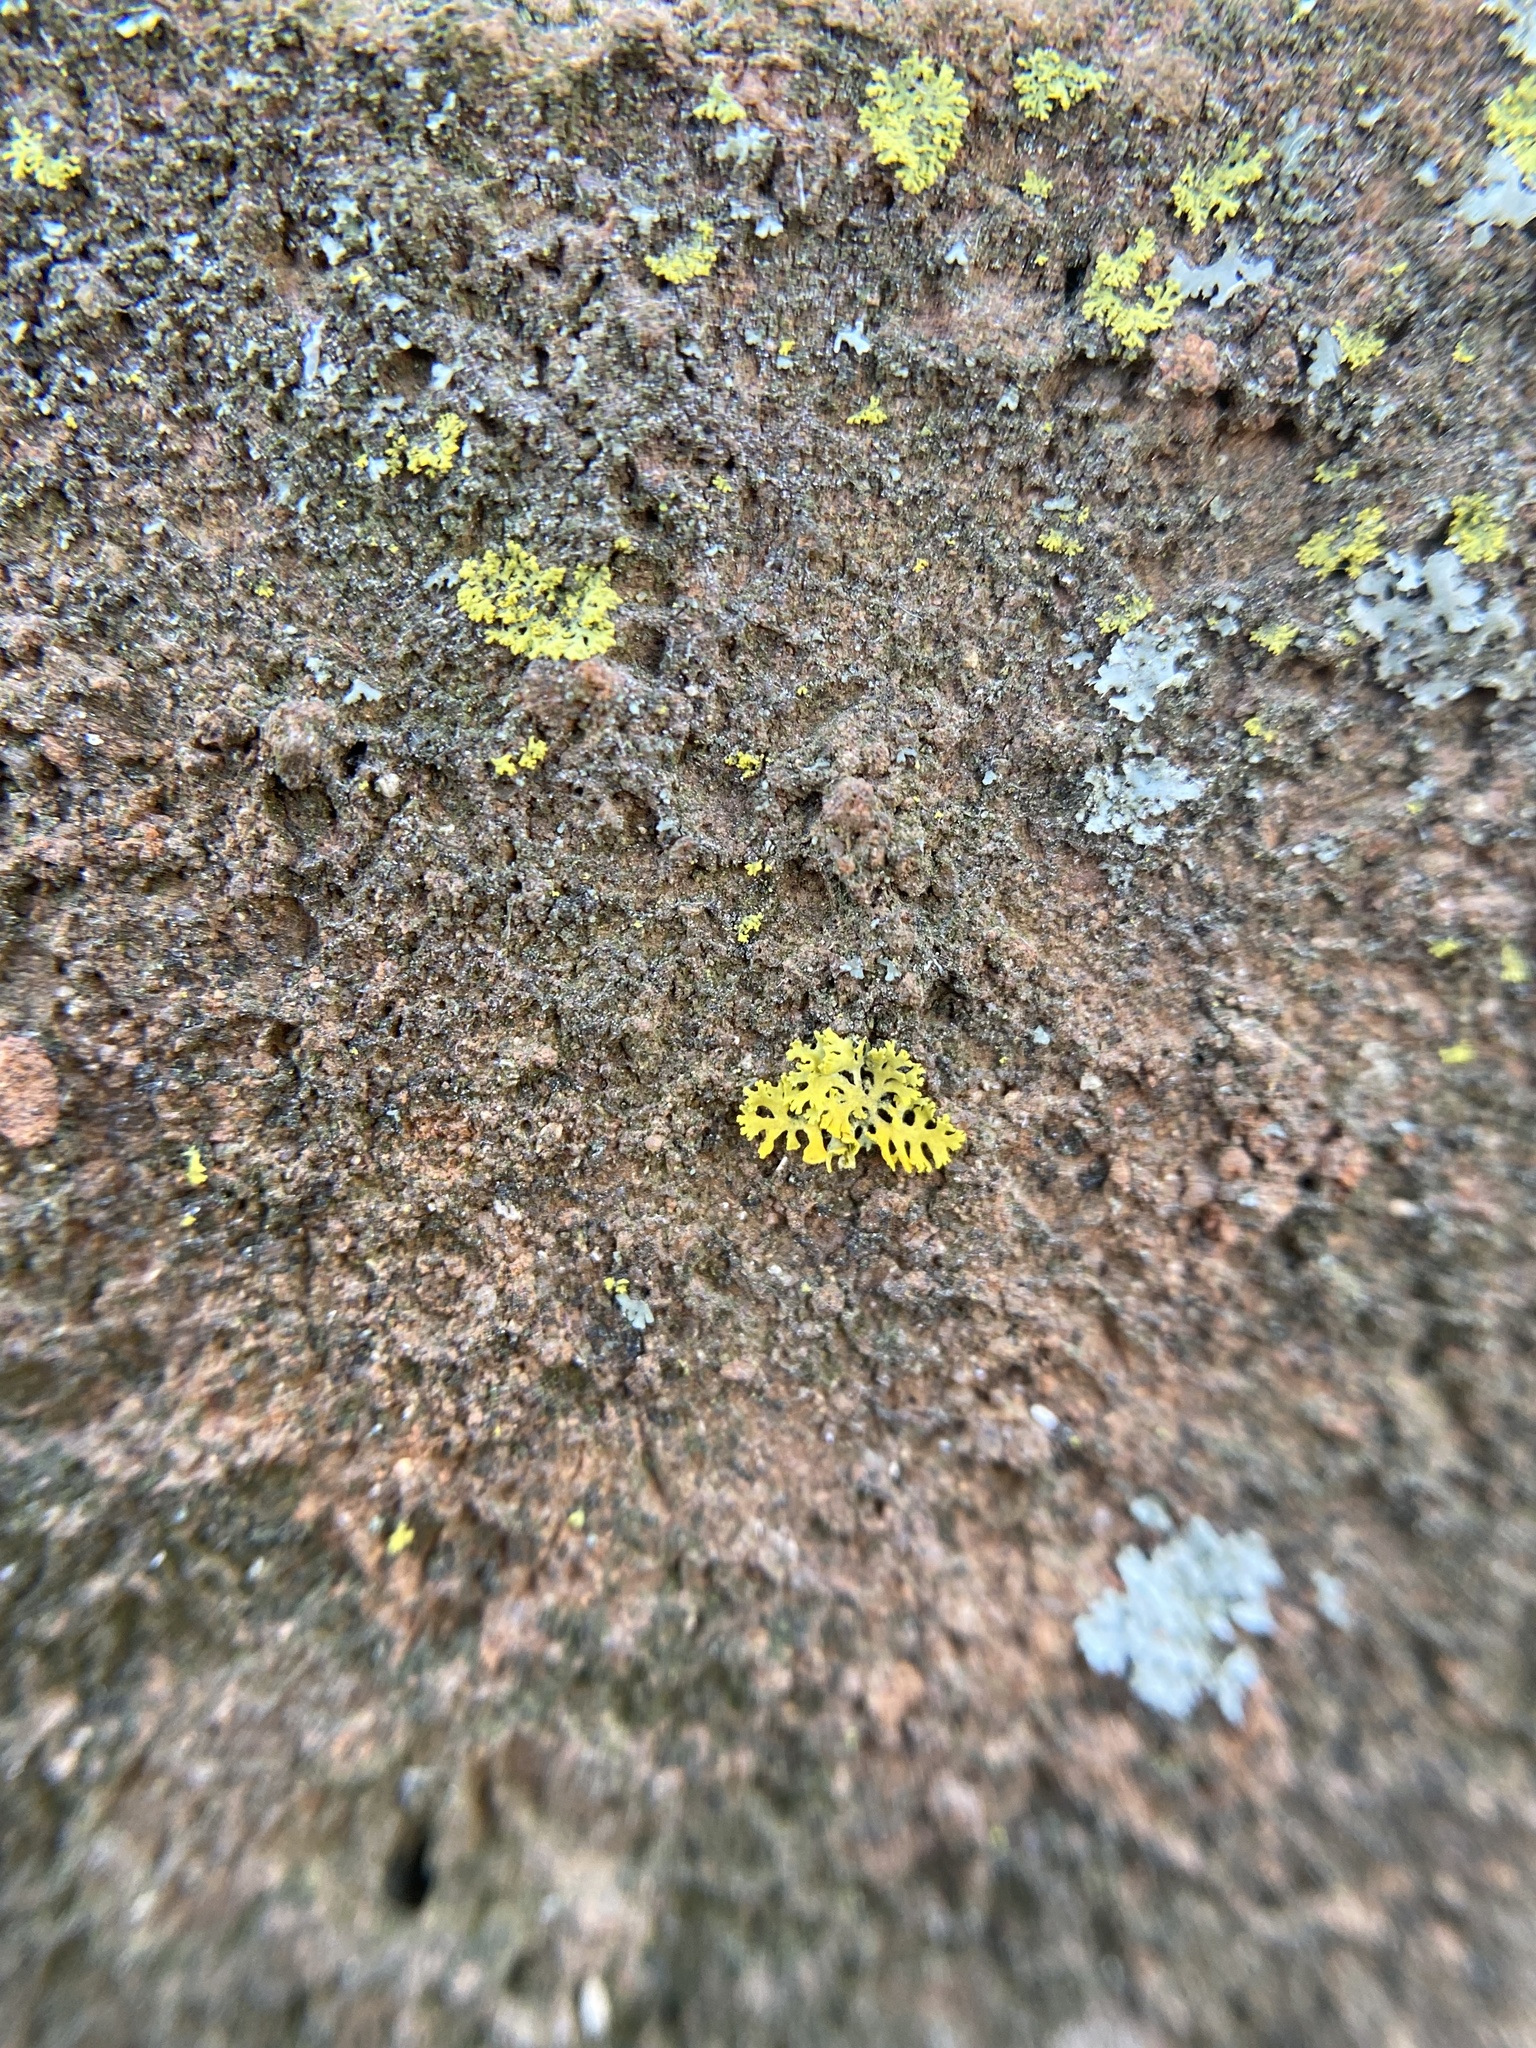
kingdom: Fungi
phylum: Ascomycota
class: Lecanoromycetes
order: Teloschistales
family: Teloschistaceae
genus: Gallowayella
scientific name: Gallowayella weberi
